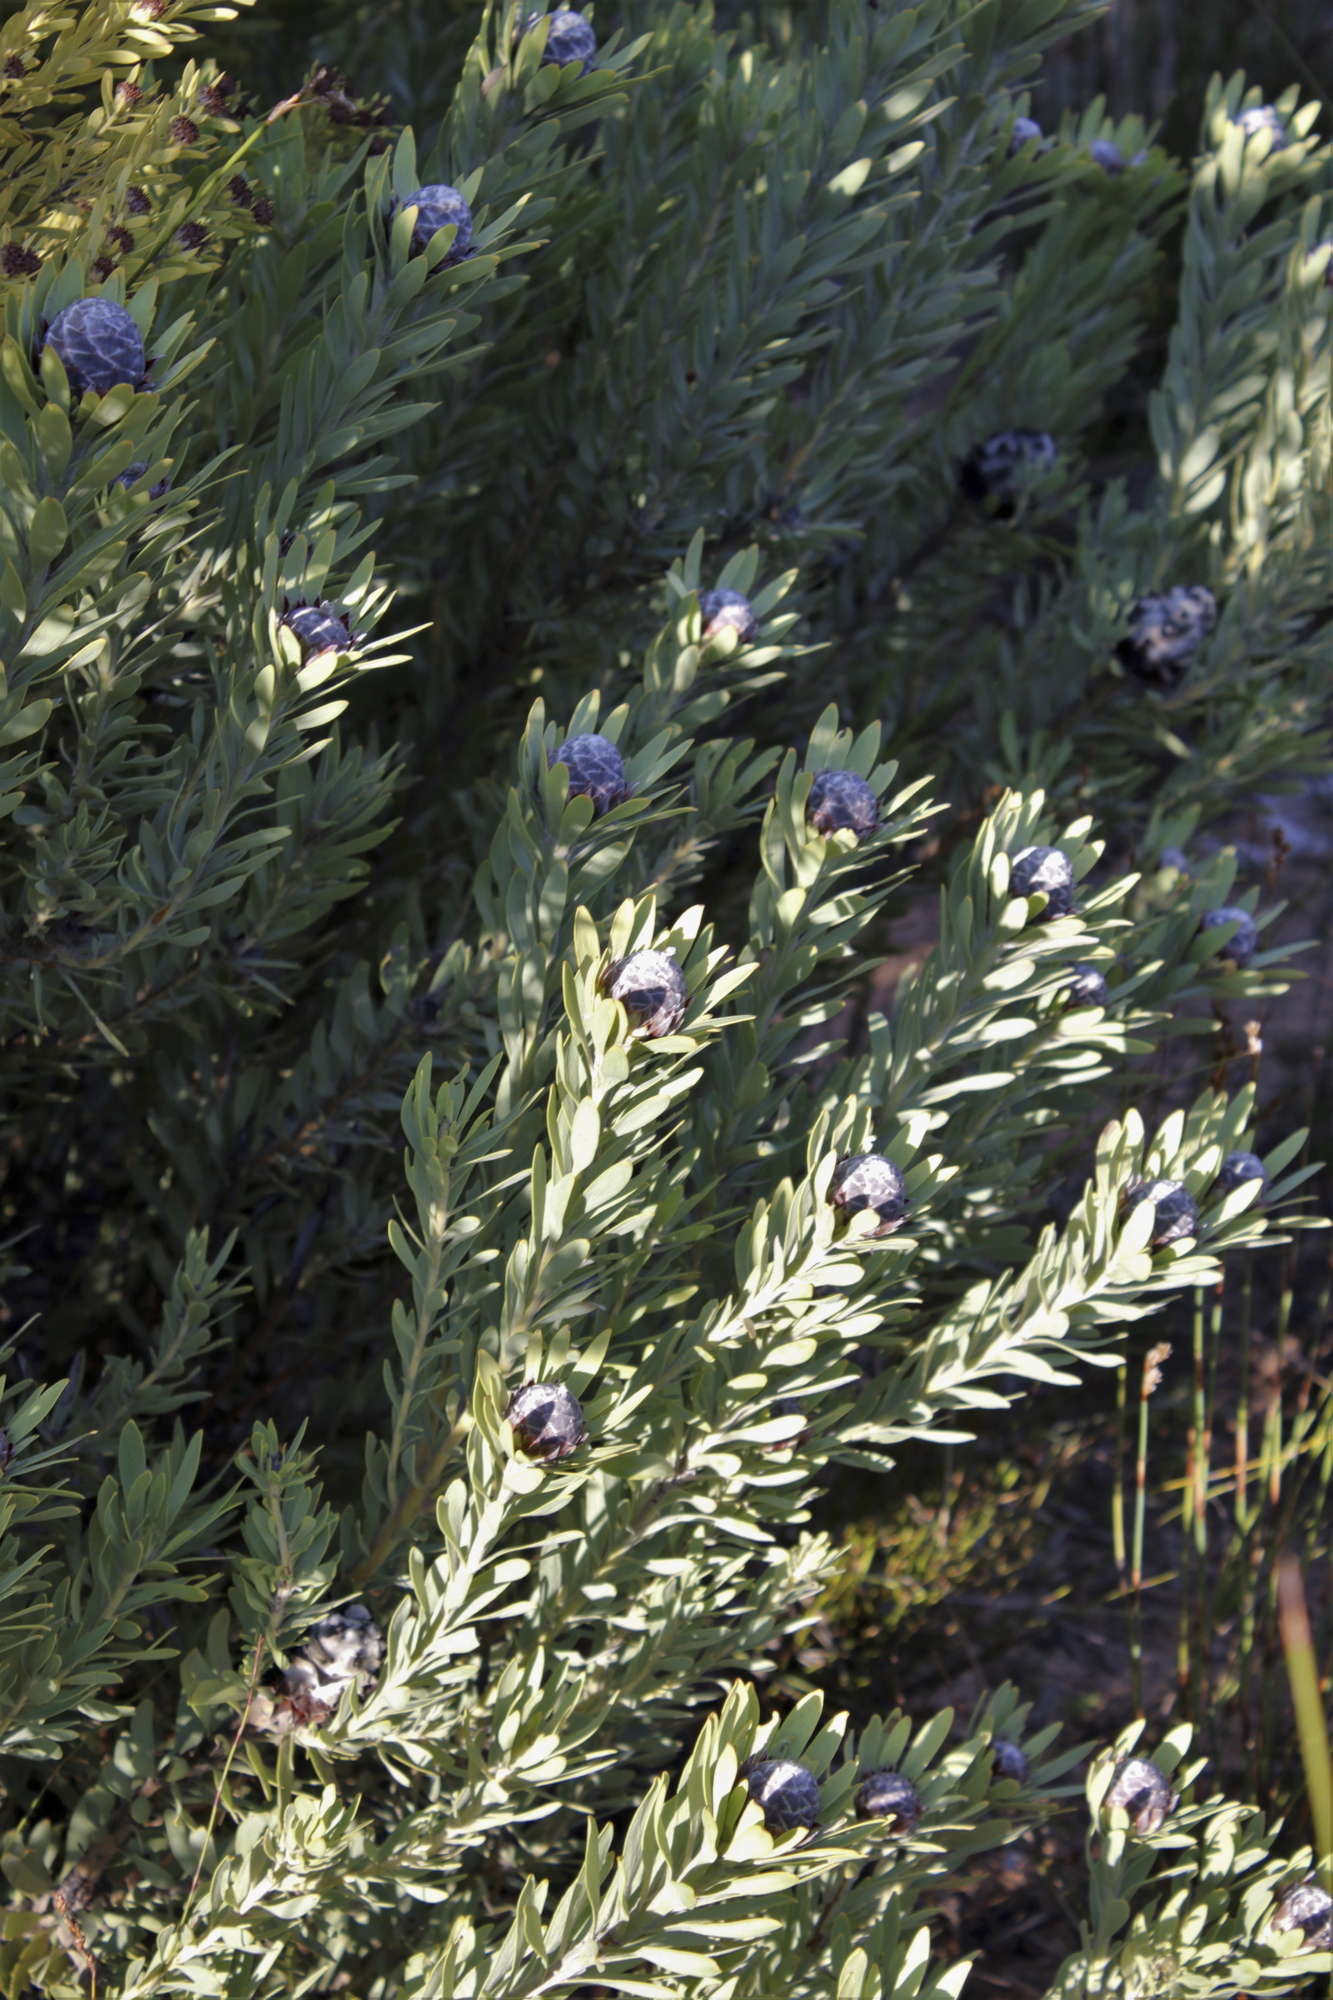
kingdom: Plantae
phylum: Tracheophyta
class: Magnoliopsida
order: Proteales
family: Proteaceae
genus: Leucadendron
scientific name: Leucadendron pubescens
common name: Grey conebush
